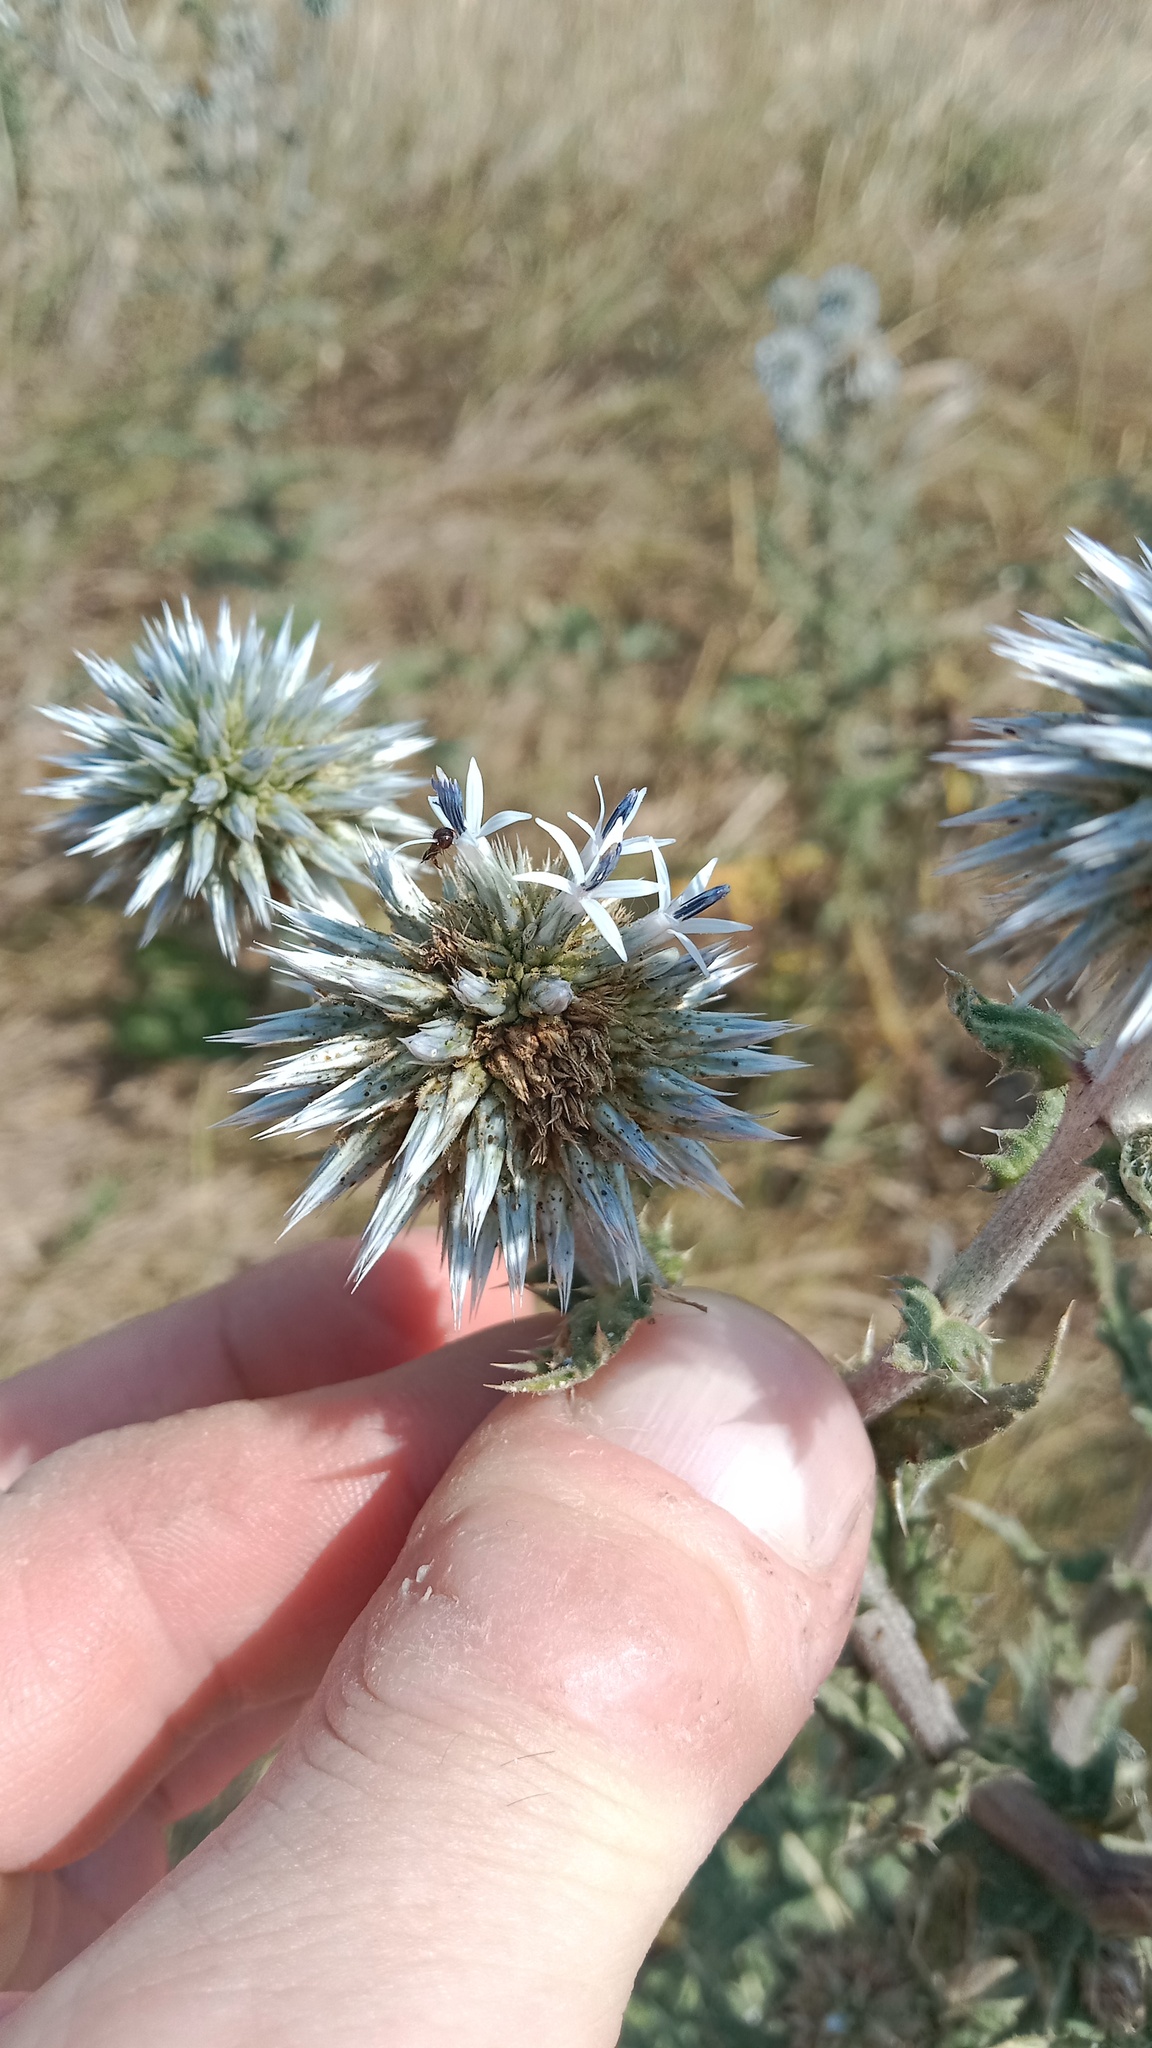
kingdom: Plantae
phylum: Tracheophyta
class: Magnoliopsida
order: Asterales
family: Asteraceae
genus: Echinops
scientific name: Echinops sphaerocephalus
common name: Glandular globe-thistle
